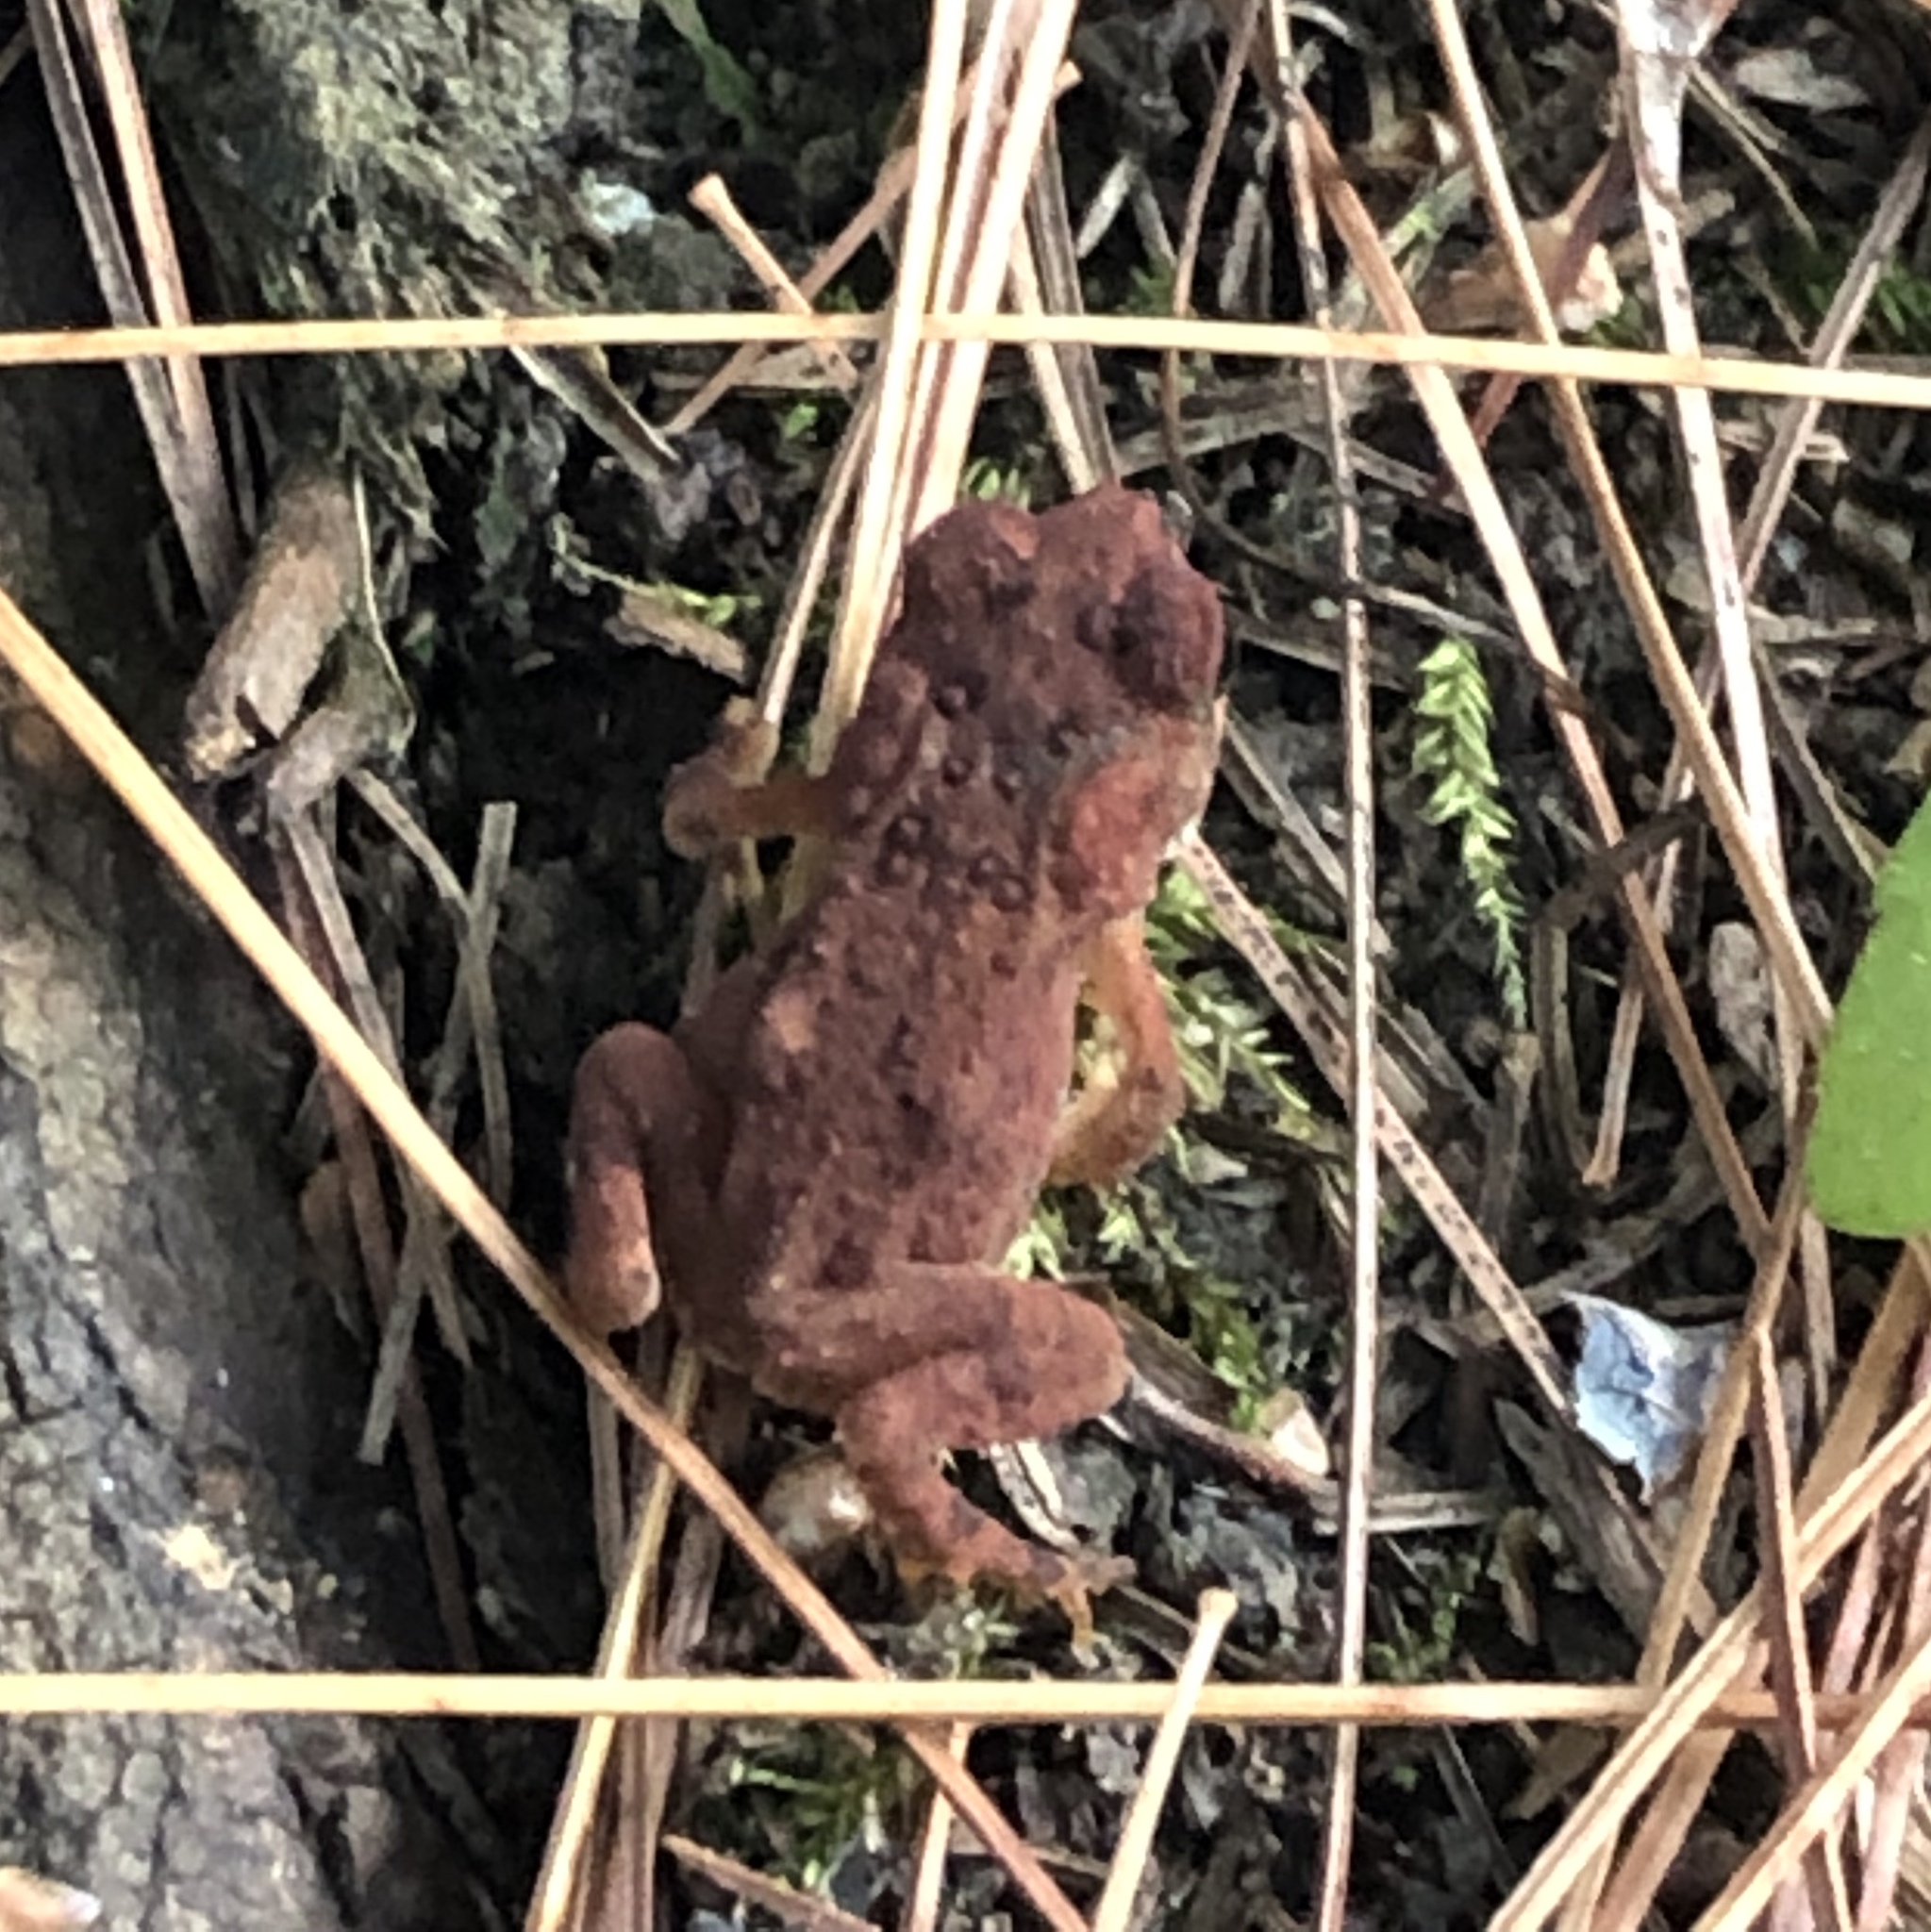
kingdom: Animalia
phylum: Chordata
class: Amphibia
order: Anura
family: Bufonidae
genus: Anaxyrus
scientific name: Anaxyrus americanus
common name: American toad
